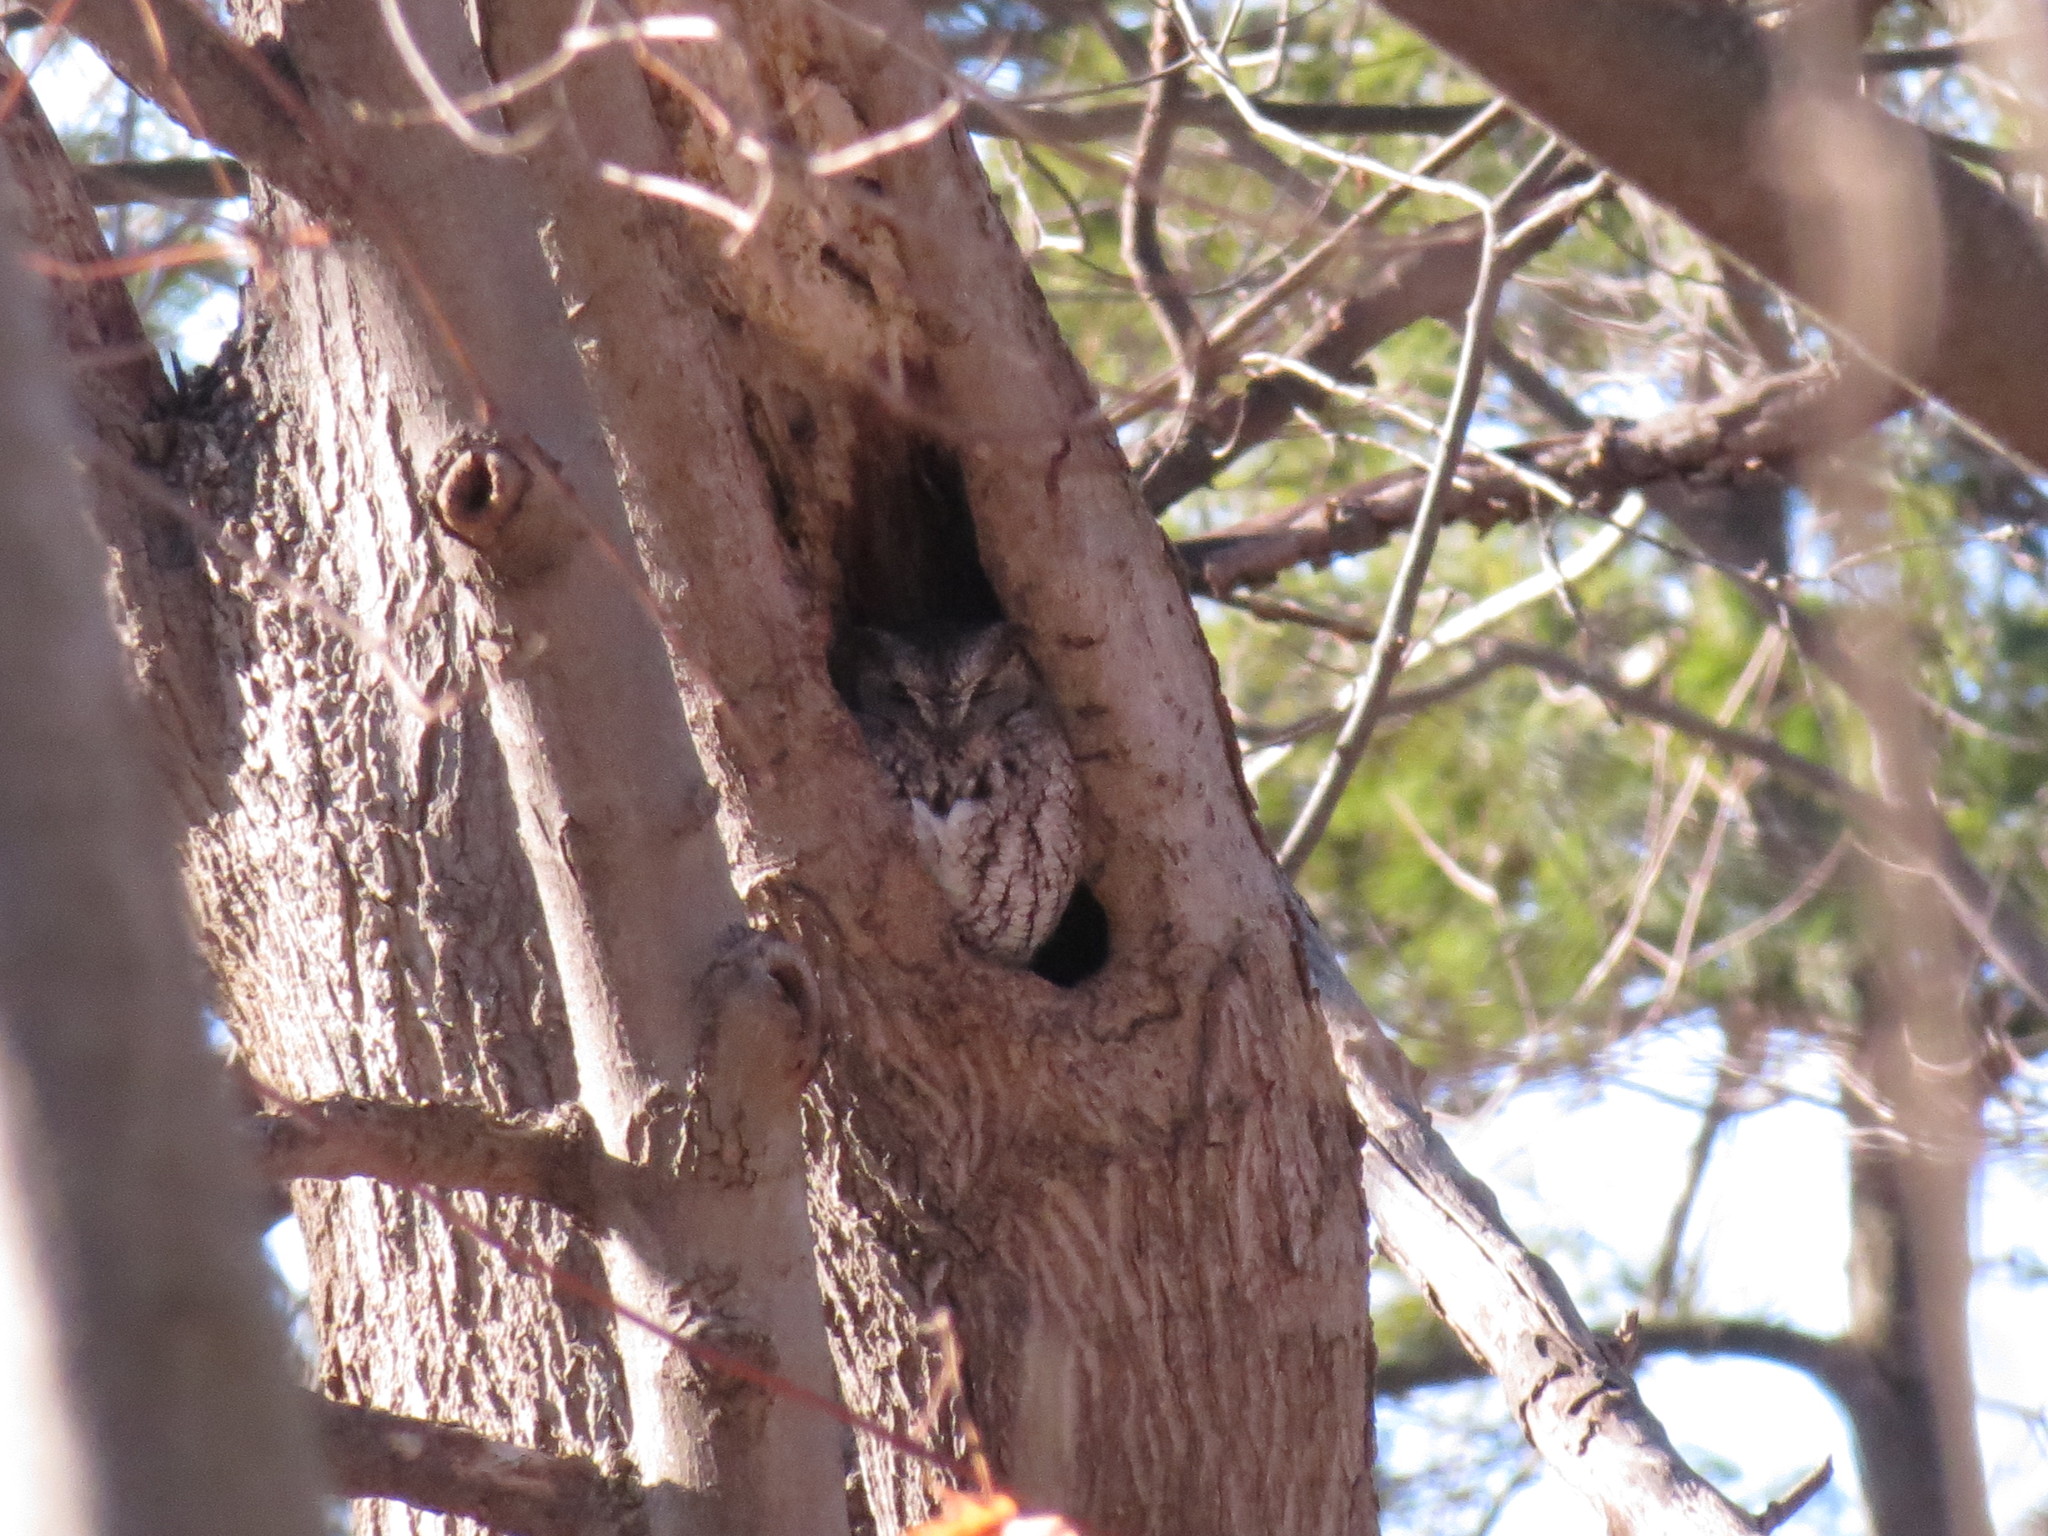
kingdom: Animalia
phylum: Chordata
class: Aves
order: Strigiformes
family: Strigidae
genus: Megascops
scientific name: Megascops asio
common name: Eastern screech-owl
